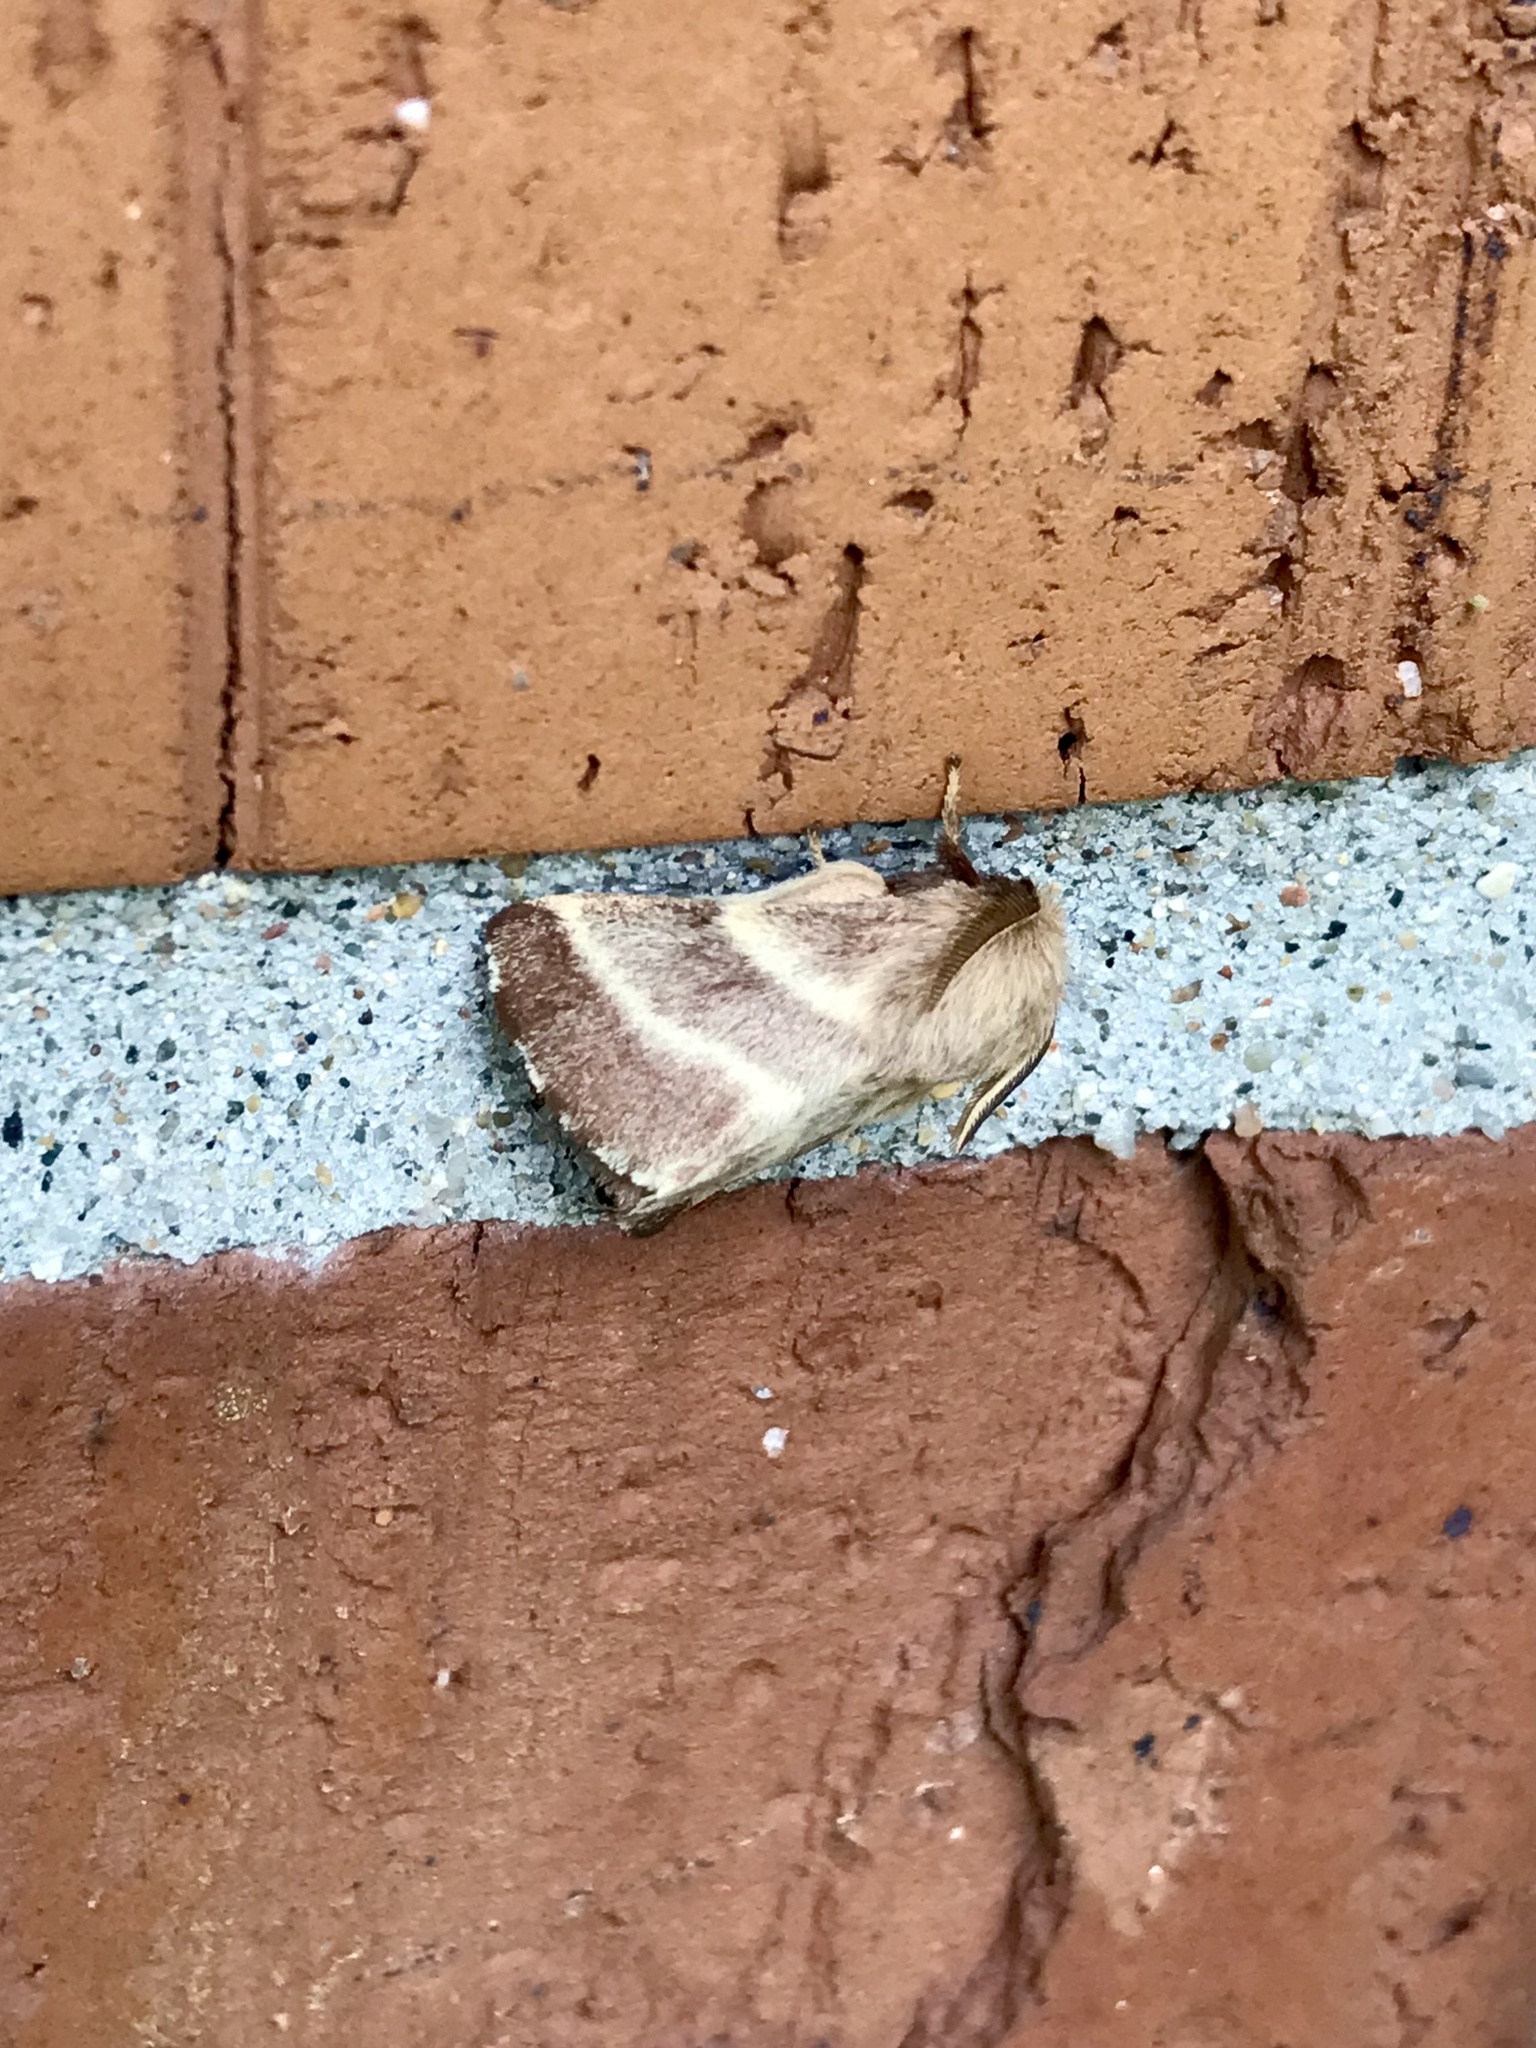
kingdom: Animalia
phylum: Arthropoda
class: Insecta
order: Lepidoptera
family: Lasiocampidae
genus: Malacosoma
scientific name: Malacosoma americana
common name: Eastern tent caterpillar moth
